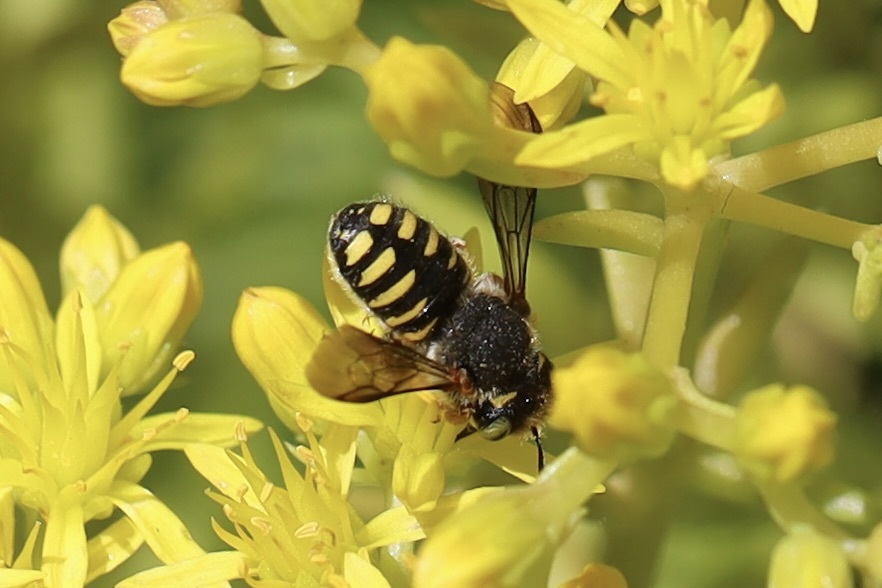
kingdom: Animalia
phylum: Arthropoda
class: Insecta
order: Hymenoptera
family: Megachilidae
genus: Anthidium
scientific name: Anthidium oblongatum
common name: Oblong wool carder bee
